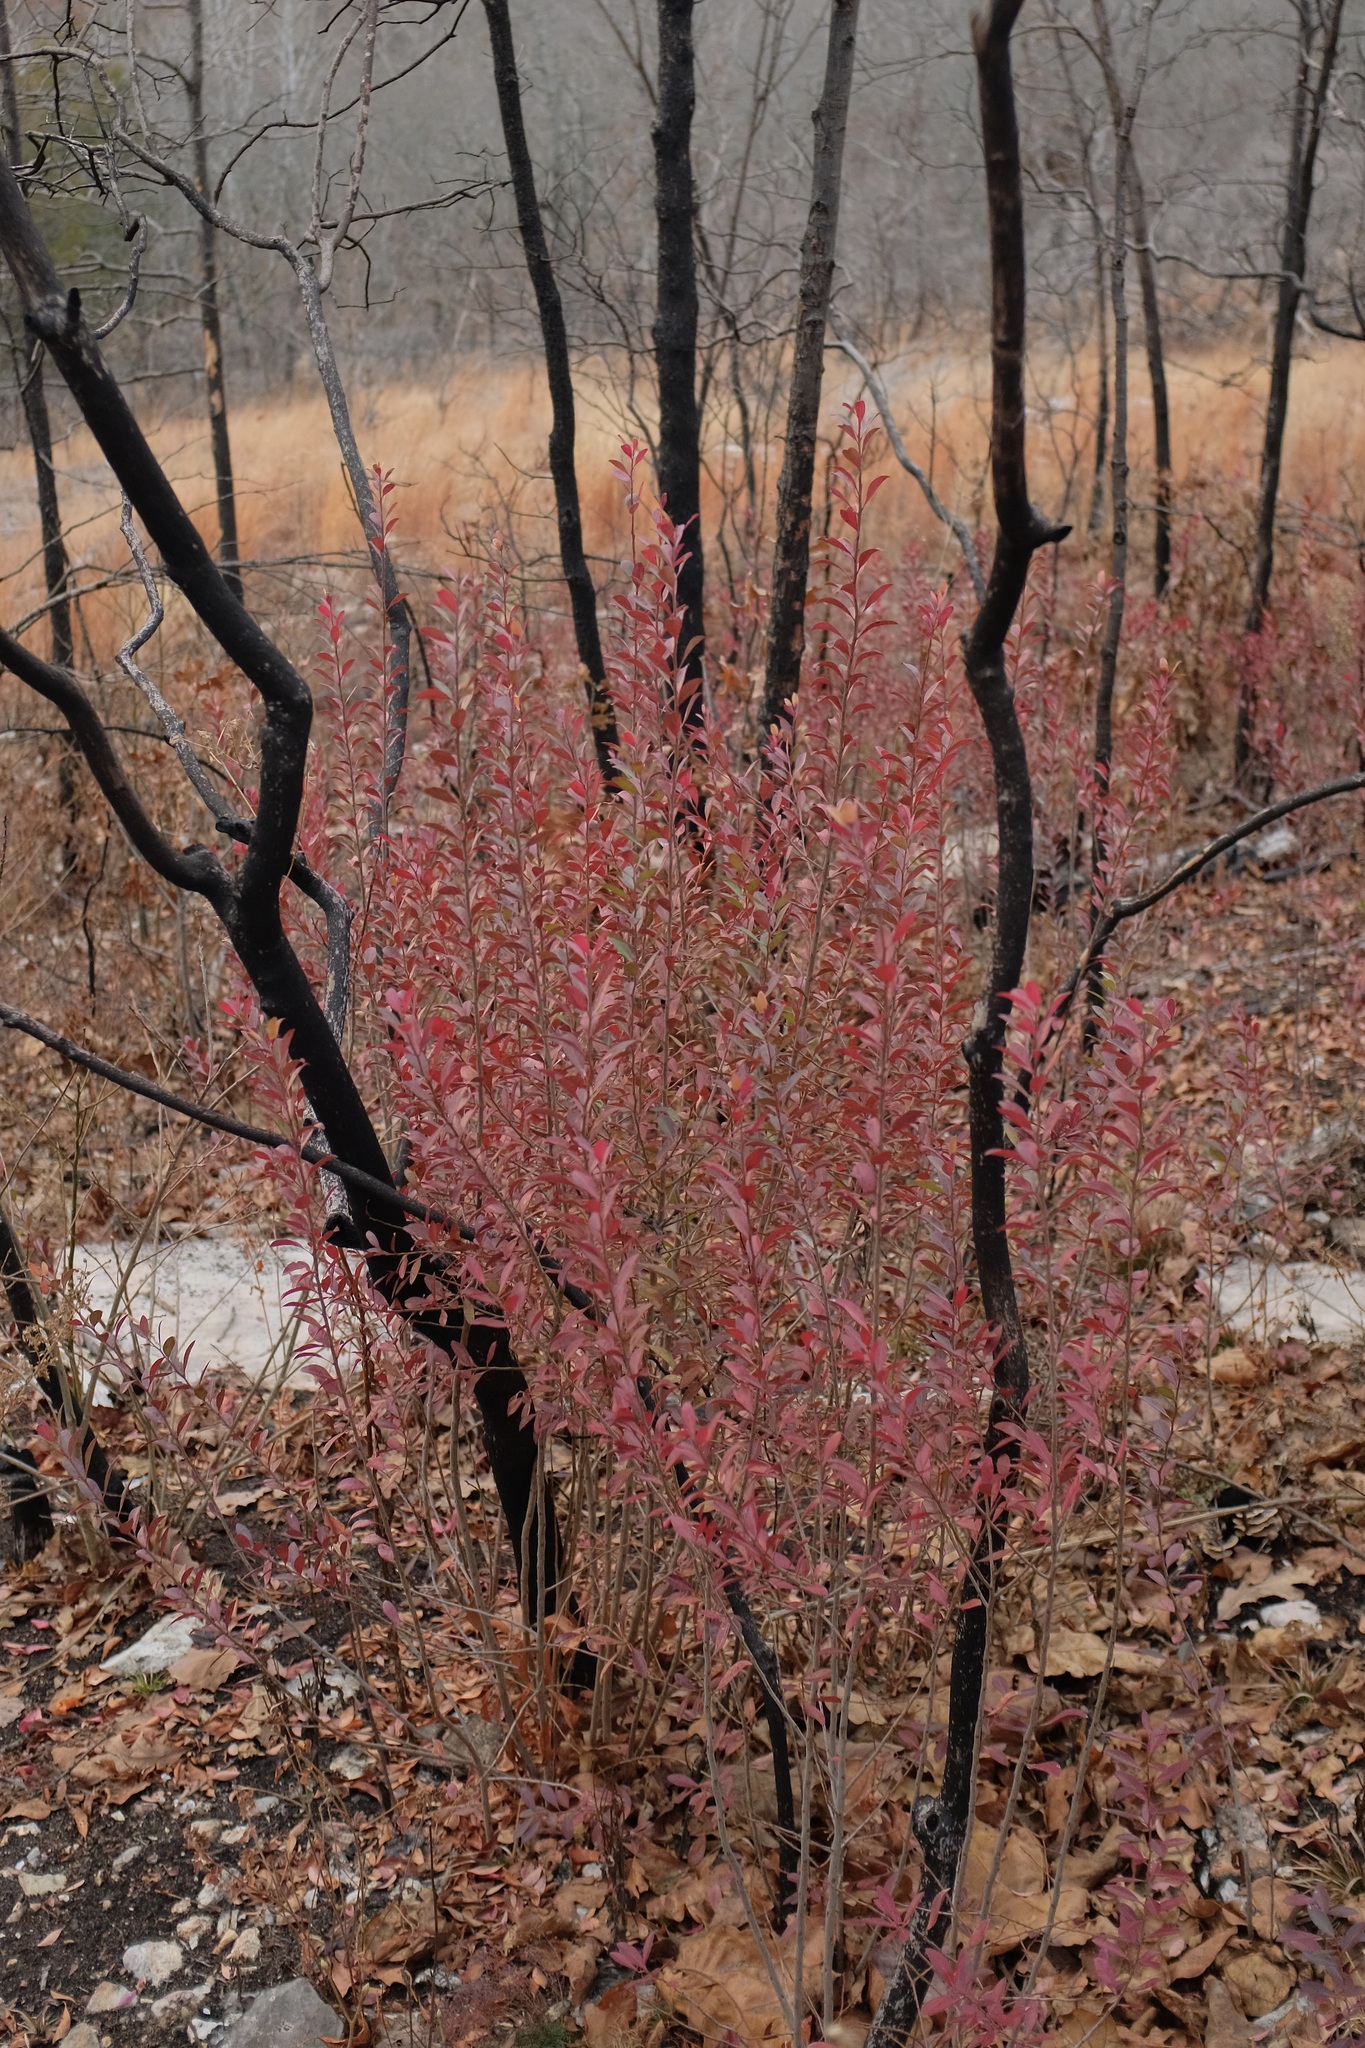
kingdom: Plantae
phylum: Tracheophyta
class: Magnoliopsida
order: Ericales
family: Ericaceae
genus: Vaccinium
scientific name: Vaccinium arboreum
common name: Farkleberry
